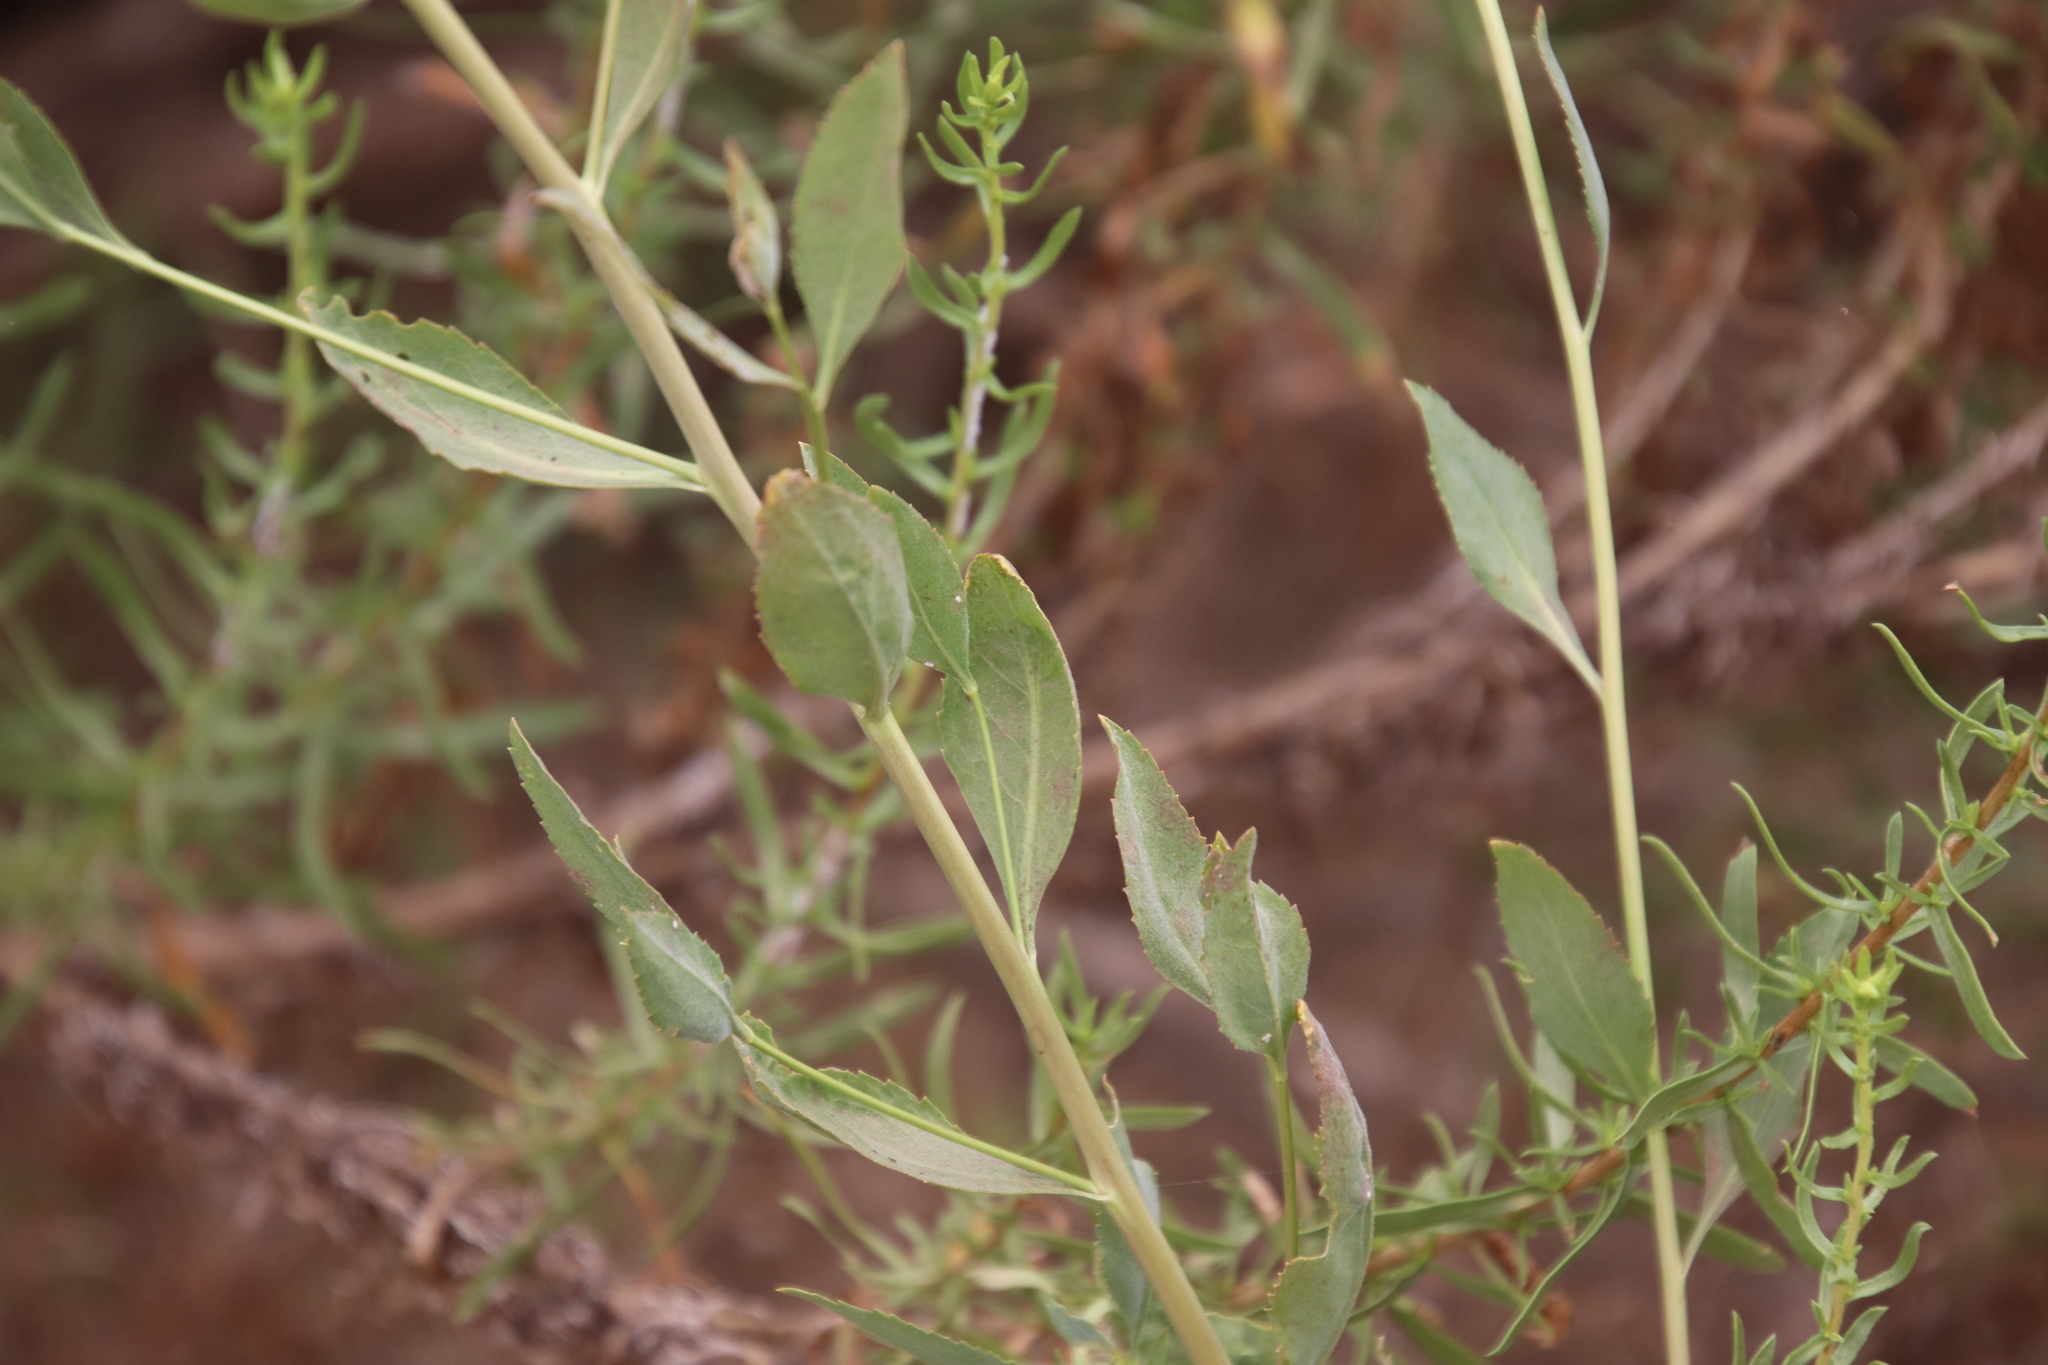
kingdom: Plantae
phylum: Tracheophyta
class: Magnoliopsida
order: Brassicales
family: Brassicaceae
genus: Lepidium
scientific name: Lepidium latifolium
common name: Dittander
